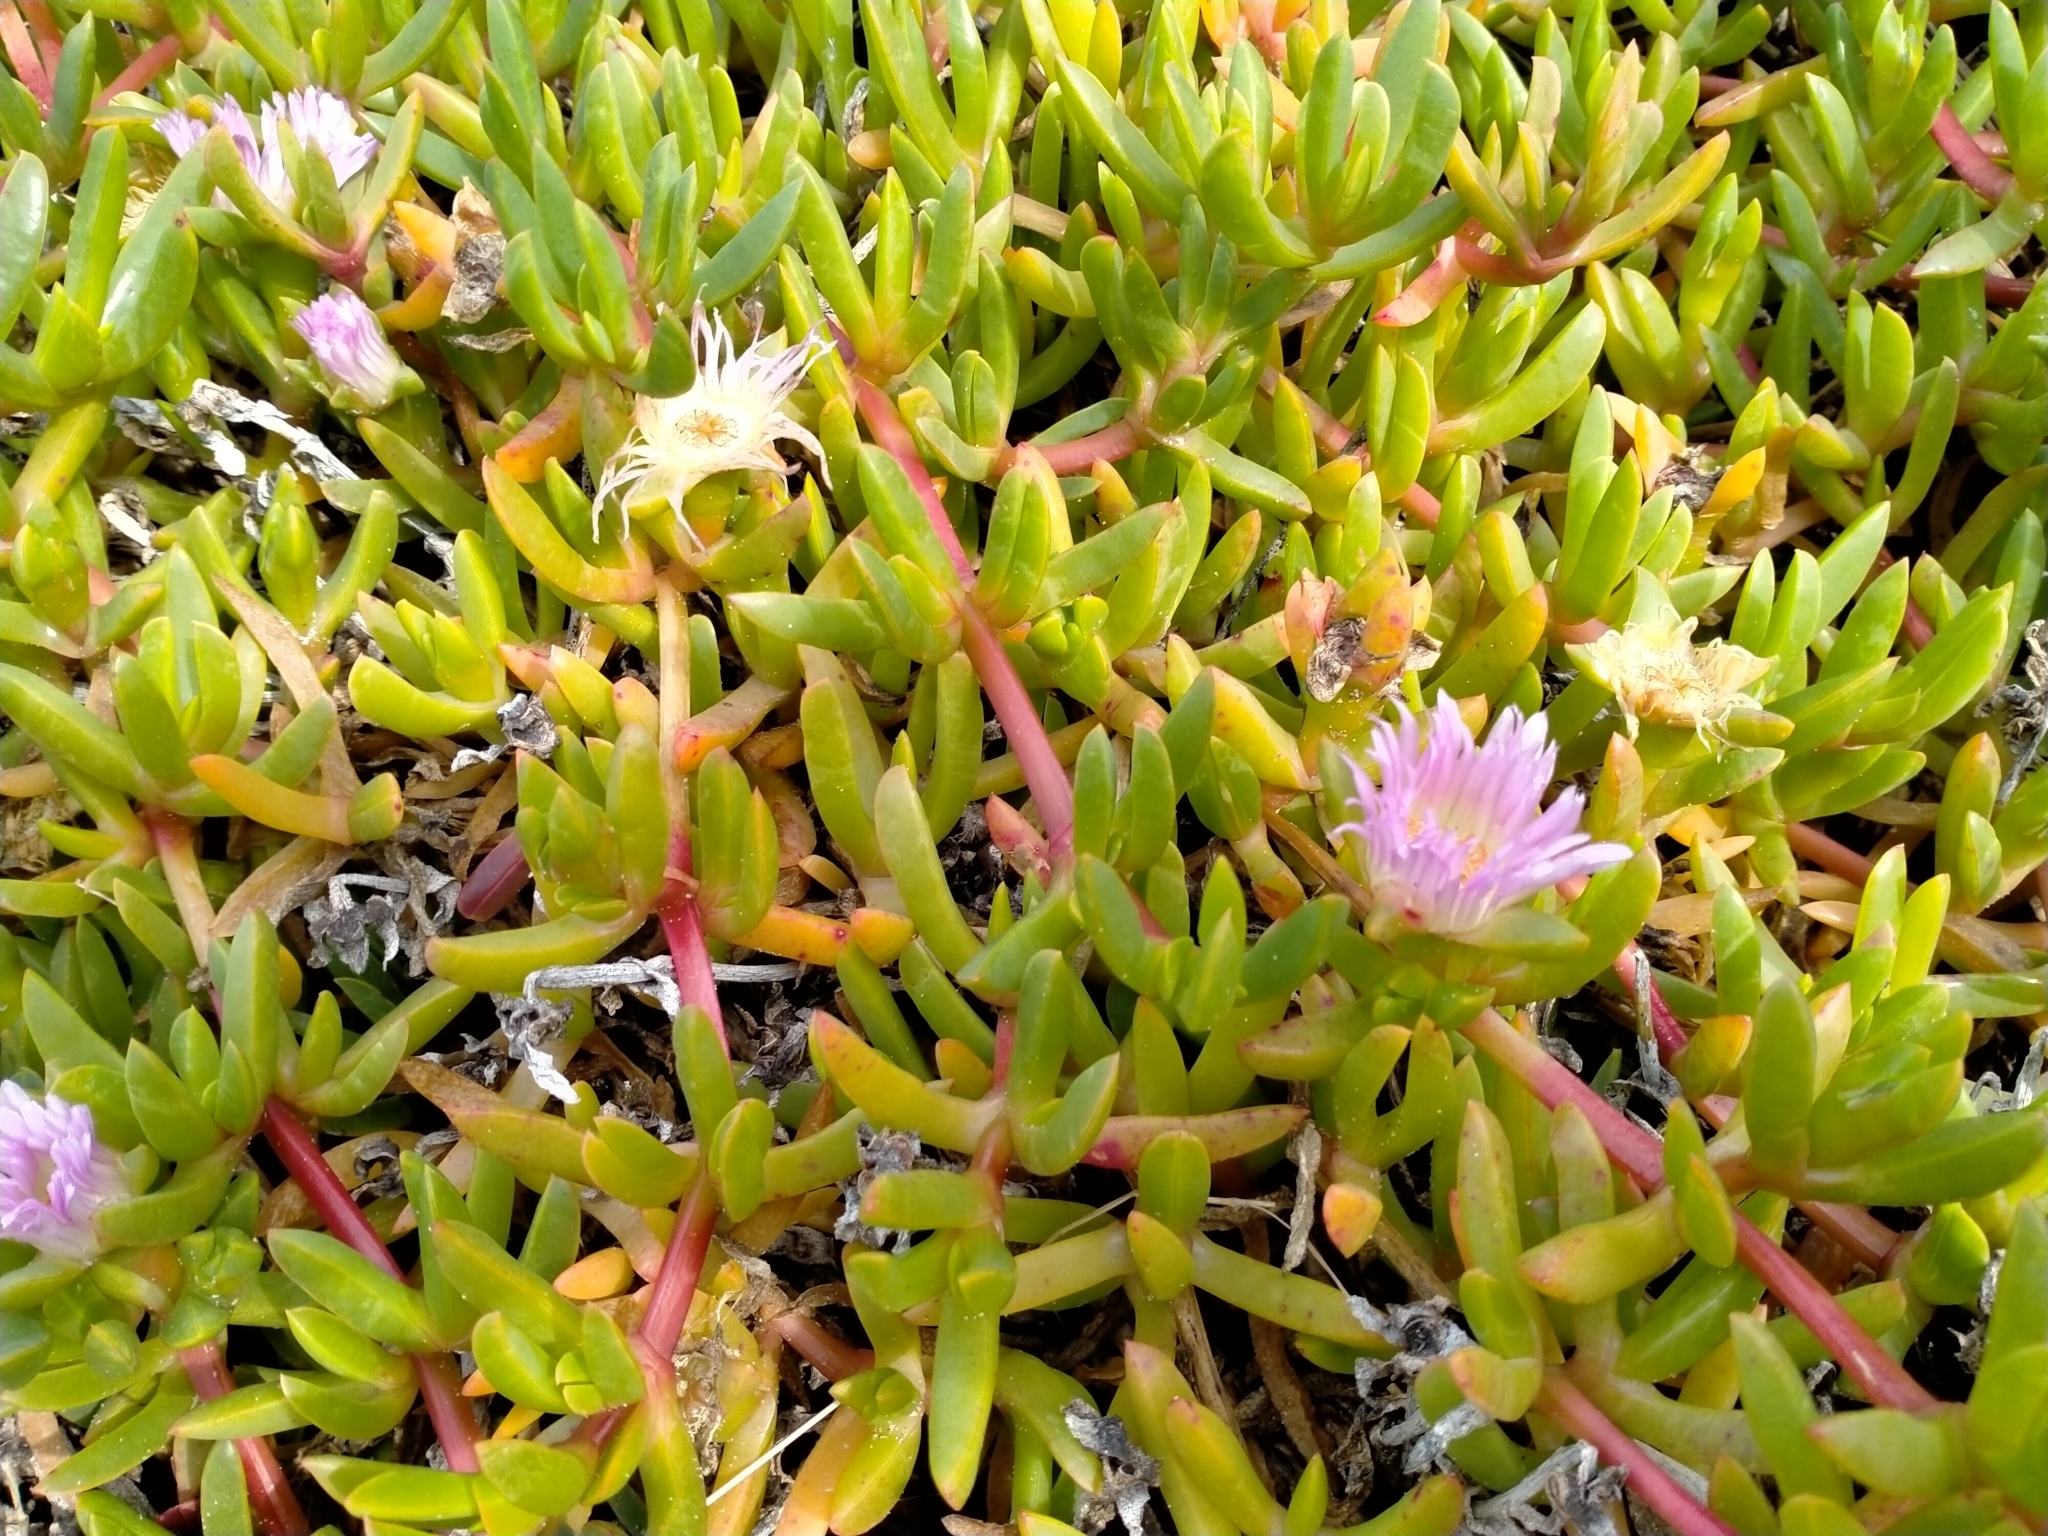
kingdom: Plantae
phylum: Tracheophyta
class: Magnoliopsida
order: Caryophyllales
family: Aizoaceae
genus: Disphyma
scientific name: Disphyma australe
